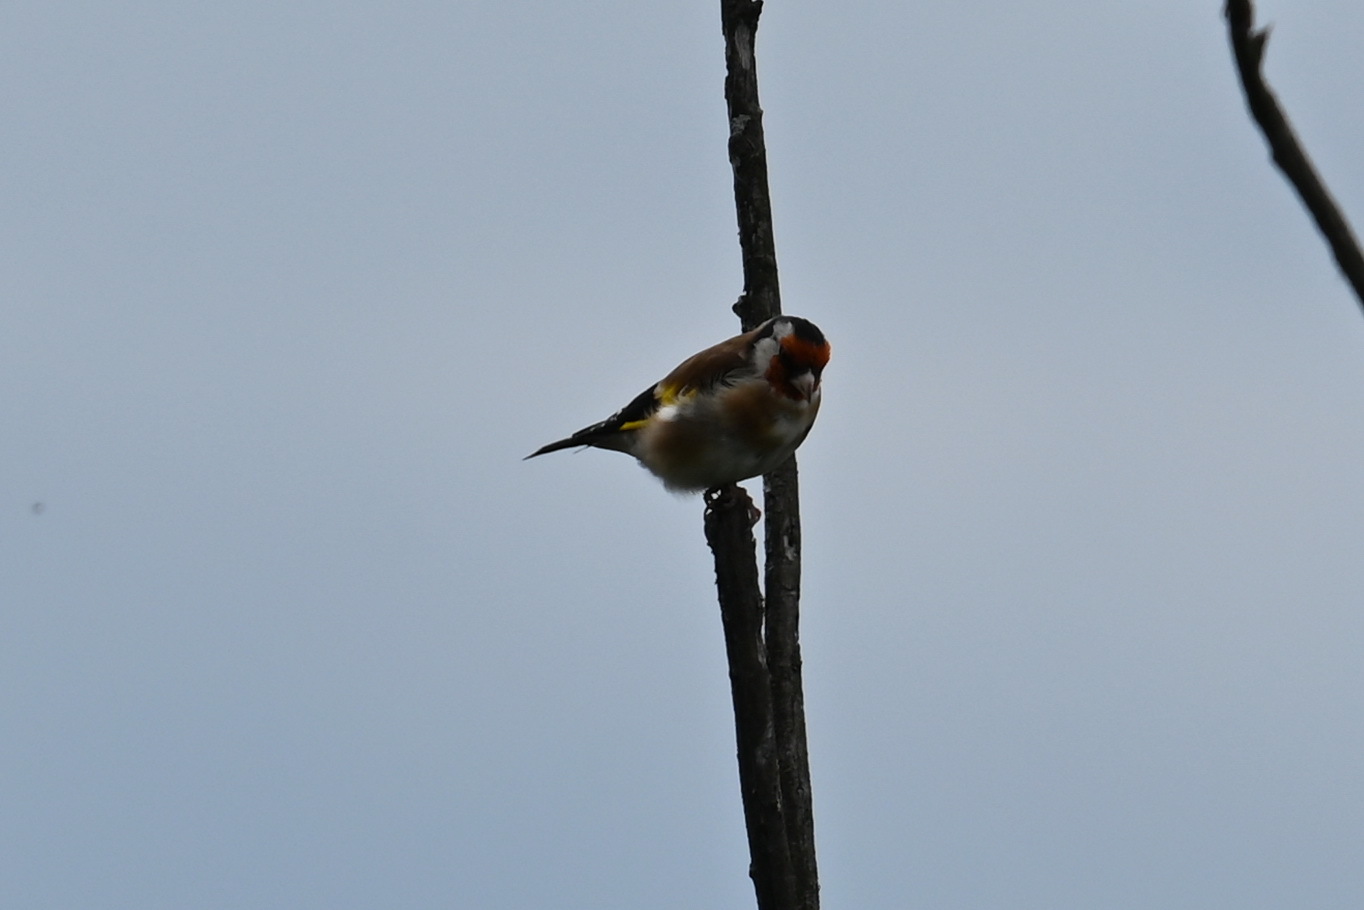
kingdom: Animalia
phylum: Chordata
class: Aves
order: Passeriformes
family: Fringillidae
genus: Carduelis
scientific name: Carduelis carduelis
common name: European goldfinch
